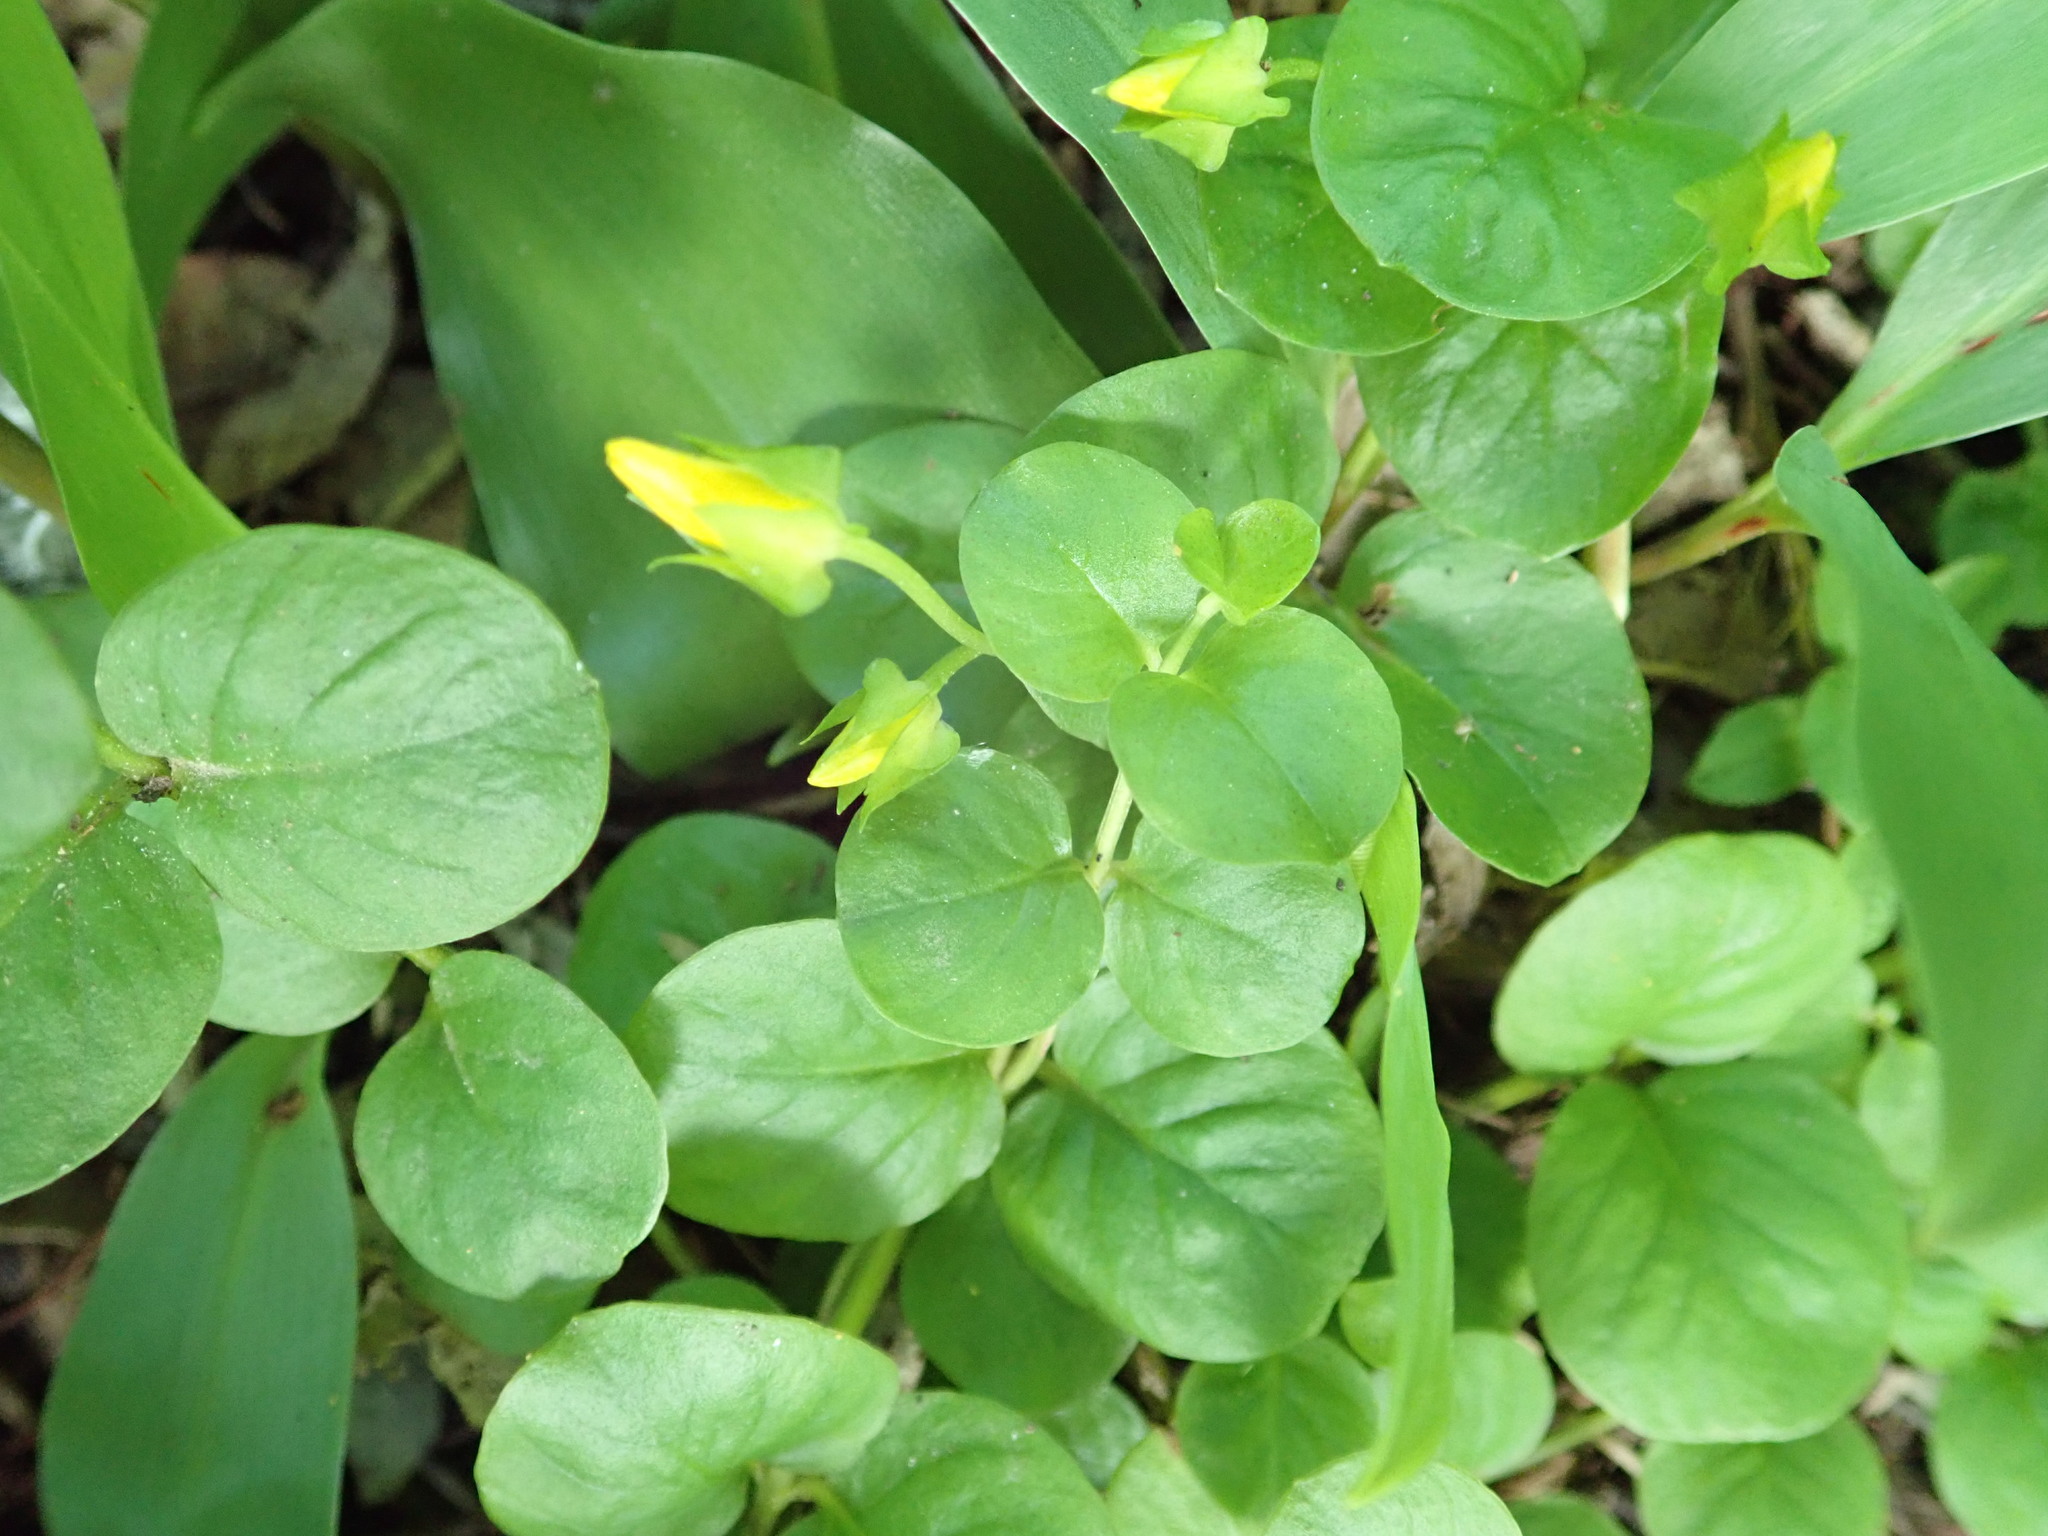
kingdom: Plantae
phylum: Tracheophyta
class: Magnoliopsida
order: Ericales
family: Primulaceae
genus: Lysimachia
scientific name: Lysimachia nummularia
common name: Moneywort
